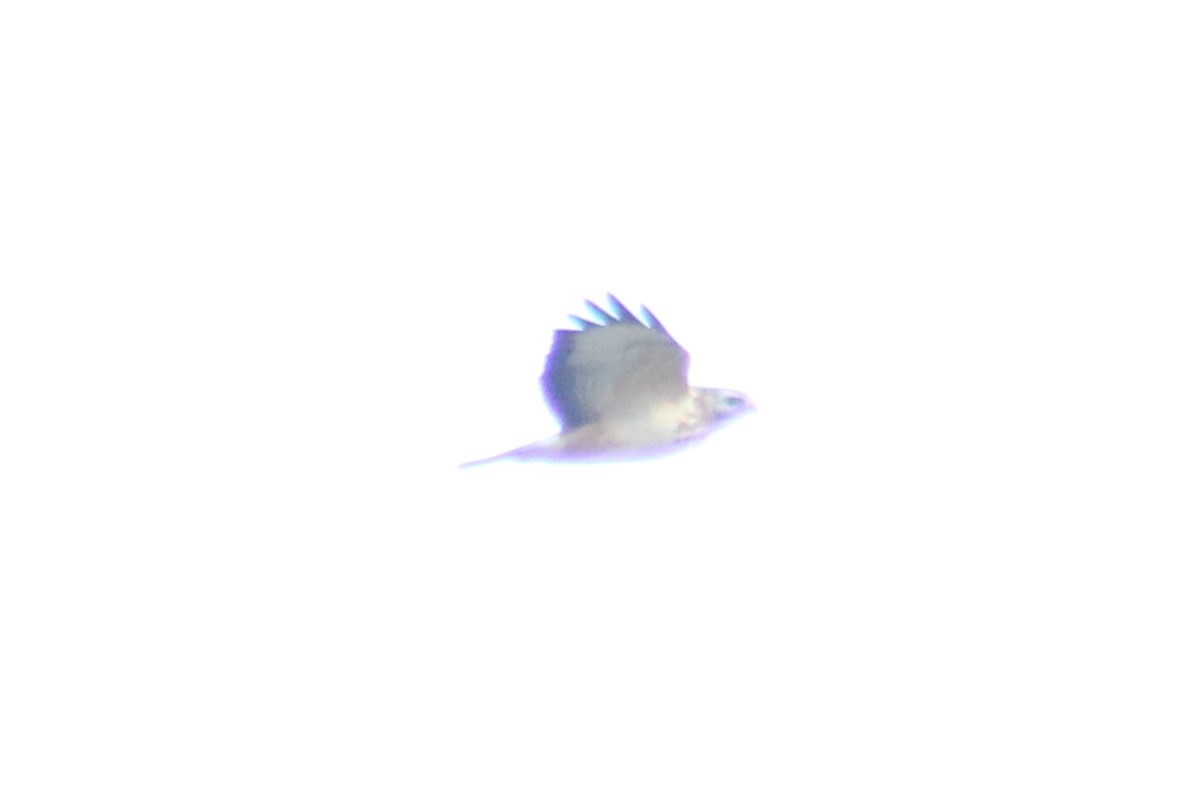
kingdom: Animalia
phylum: Chordata
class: Aves
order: Accipitriformes
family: Accipitridae
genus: Buteo
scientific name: Buteo buteo
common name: Common buzzard
